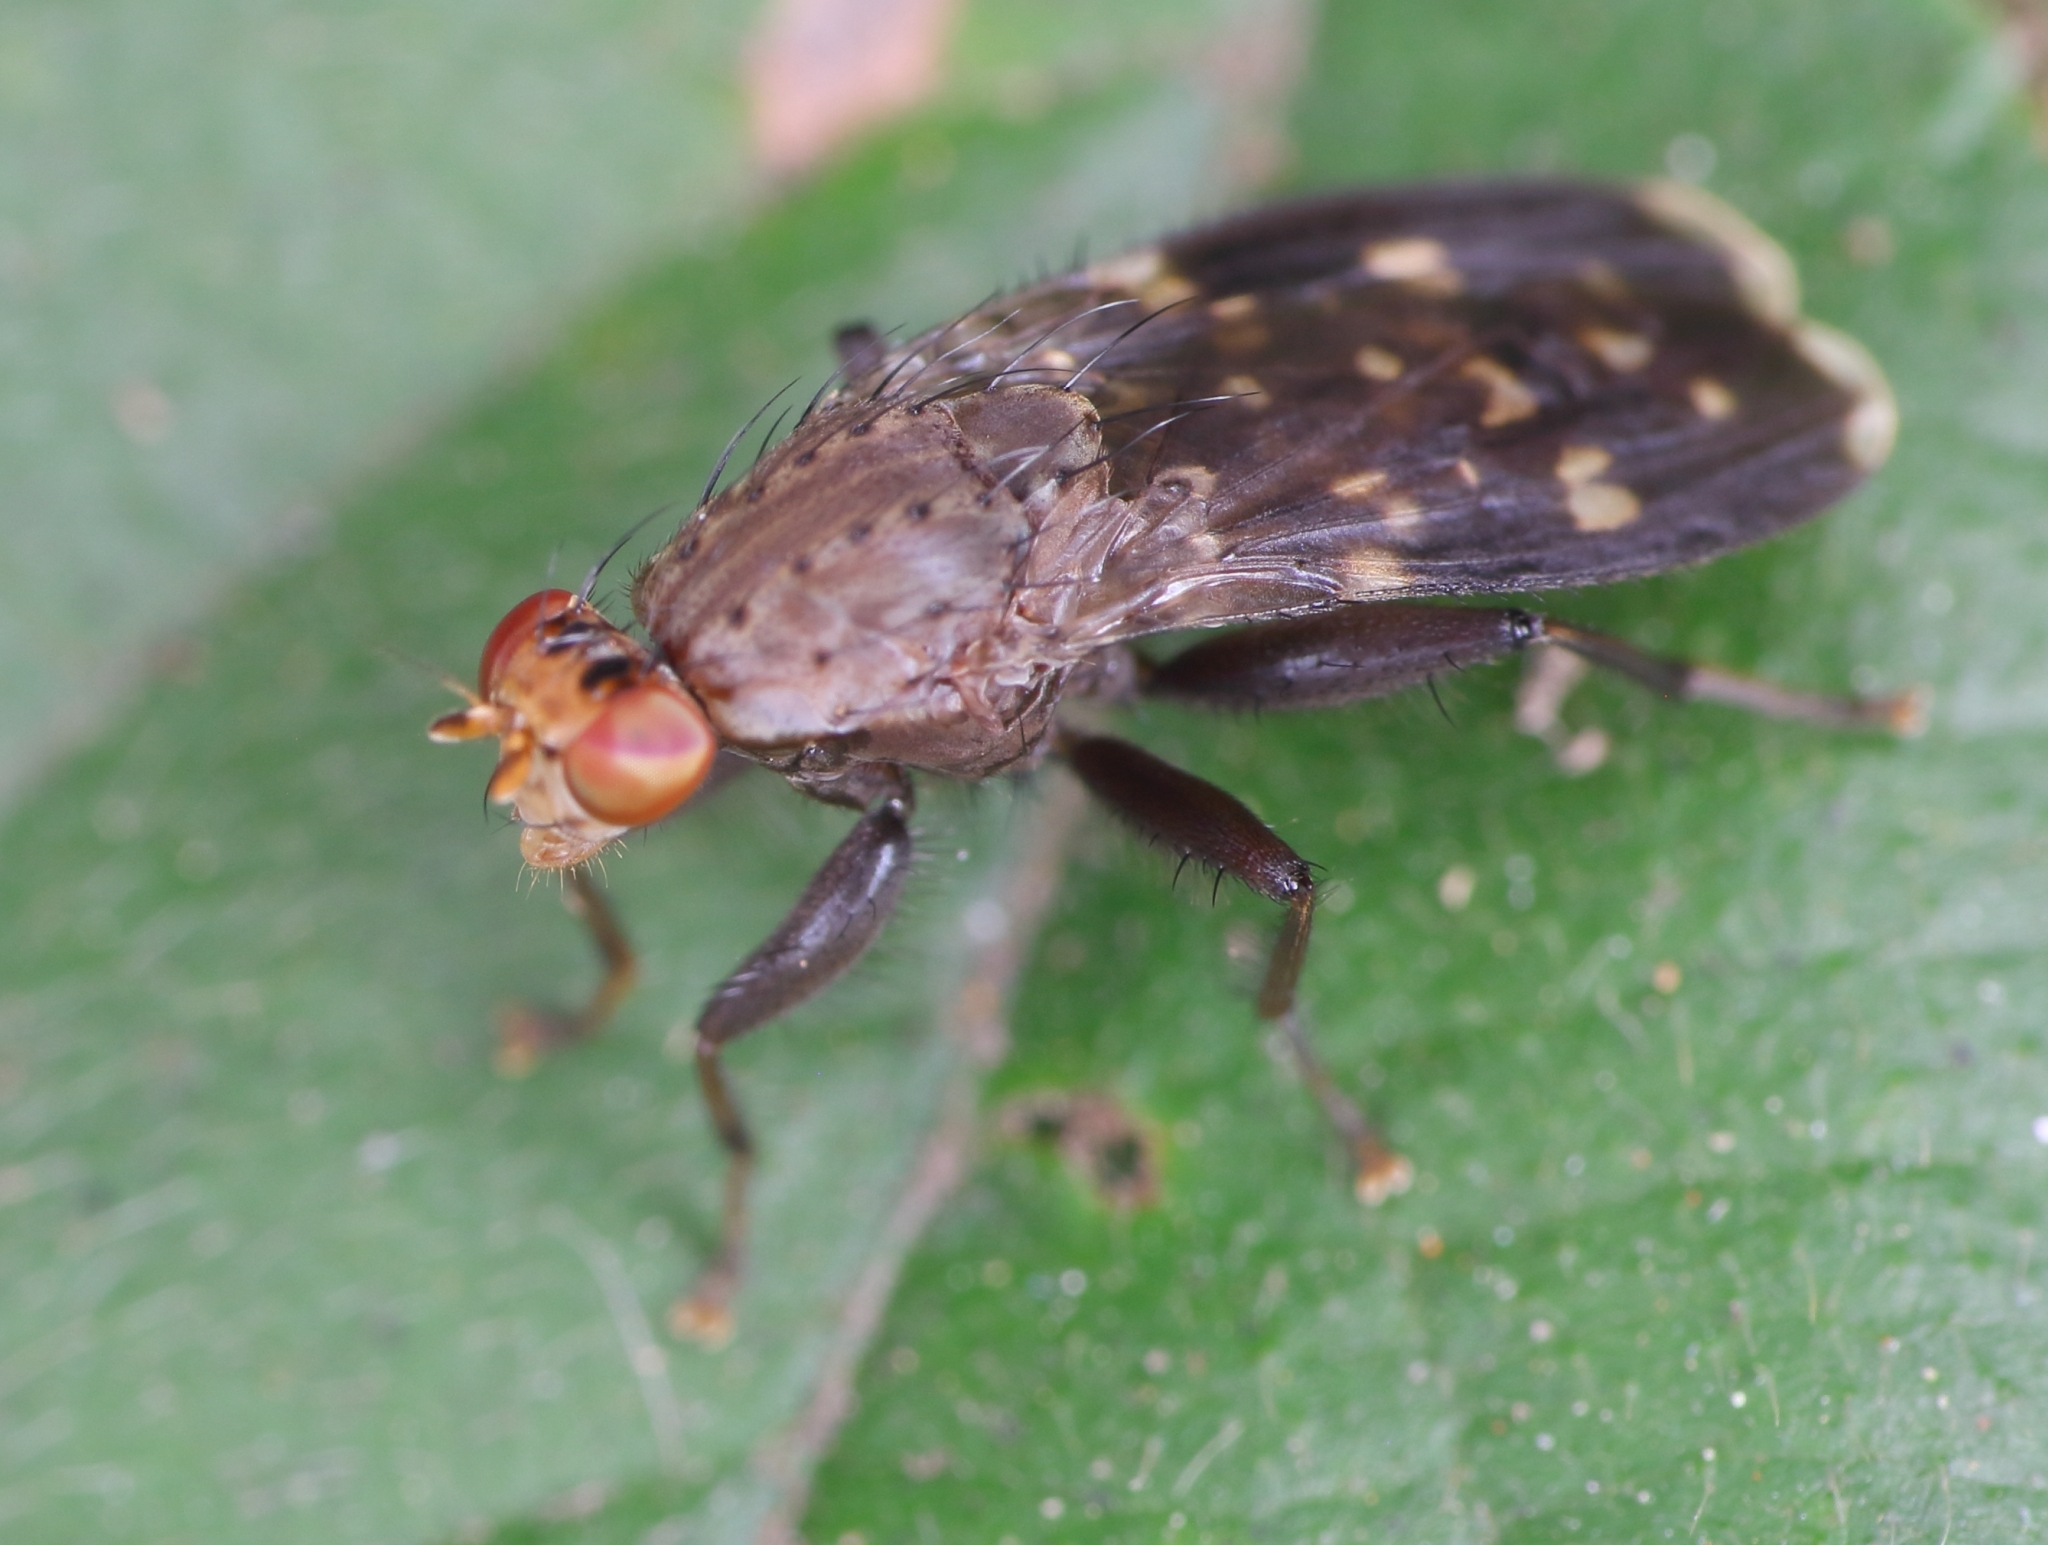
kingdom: Animalia
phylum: Arthropoda
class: Insecta
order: Diptera
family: Heleomyzidae
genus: Suillia
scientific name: Suillia picta
